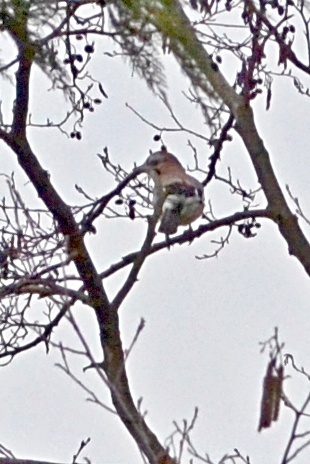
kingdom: Animalia
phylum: Chordata
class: Aves
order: Passeriformes
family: Corvidae
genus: Garrulus
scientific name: Garrulus glandarius
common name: Eurasian jay
